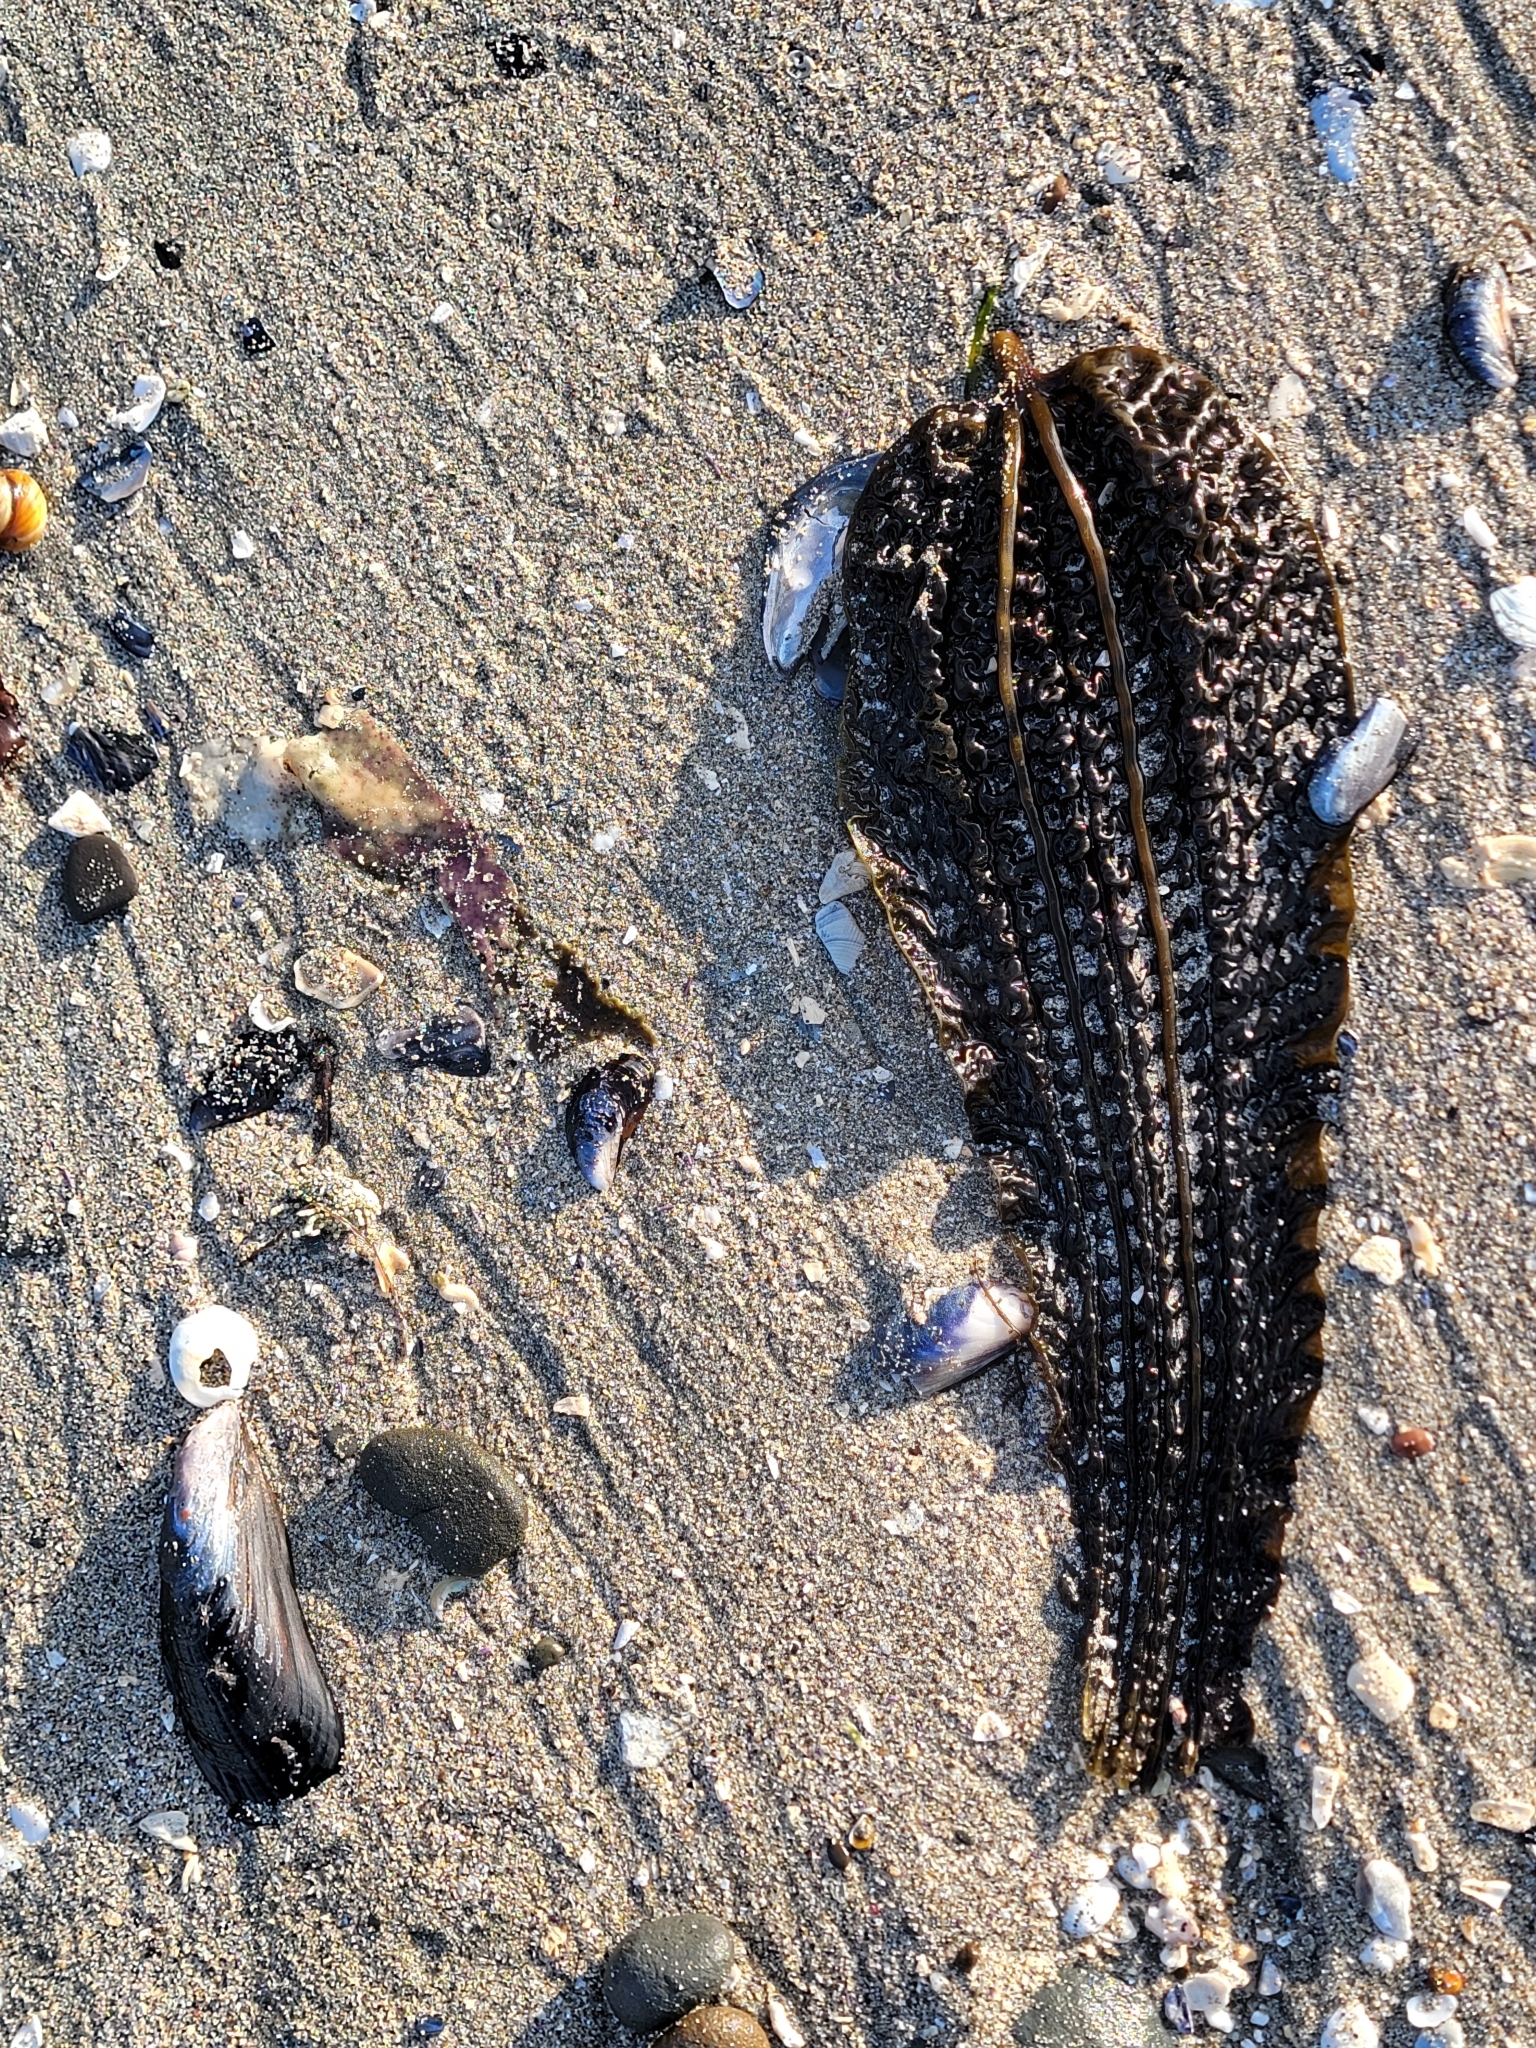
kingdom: Chromista
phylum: Ochrophyta
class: Phaeophyceae
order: Laminariales
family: Costariaceae
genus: Costaria
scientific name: Costaria costata
